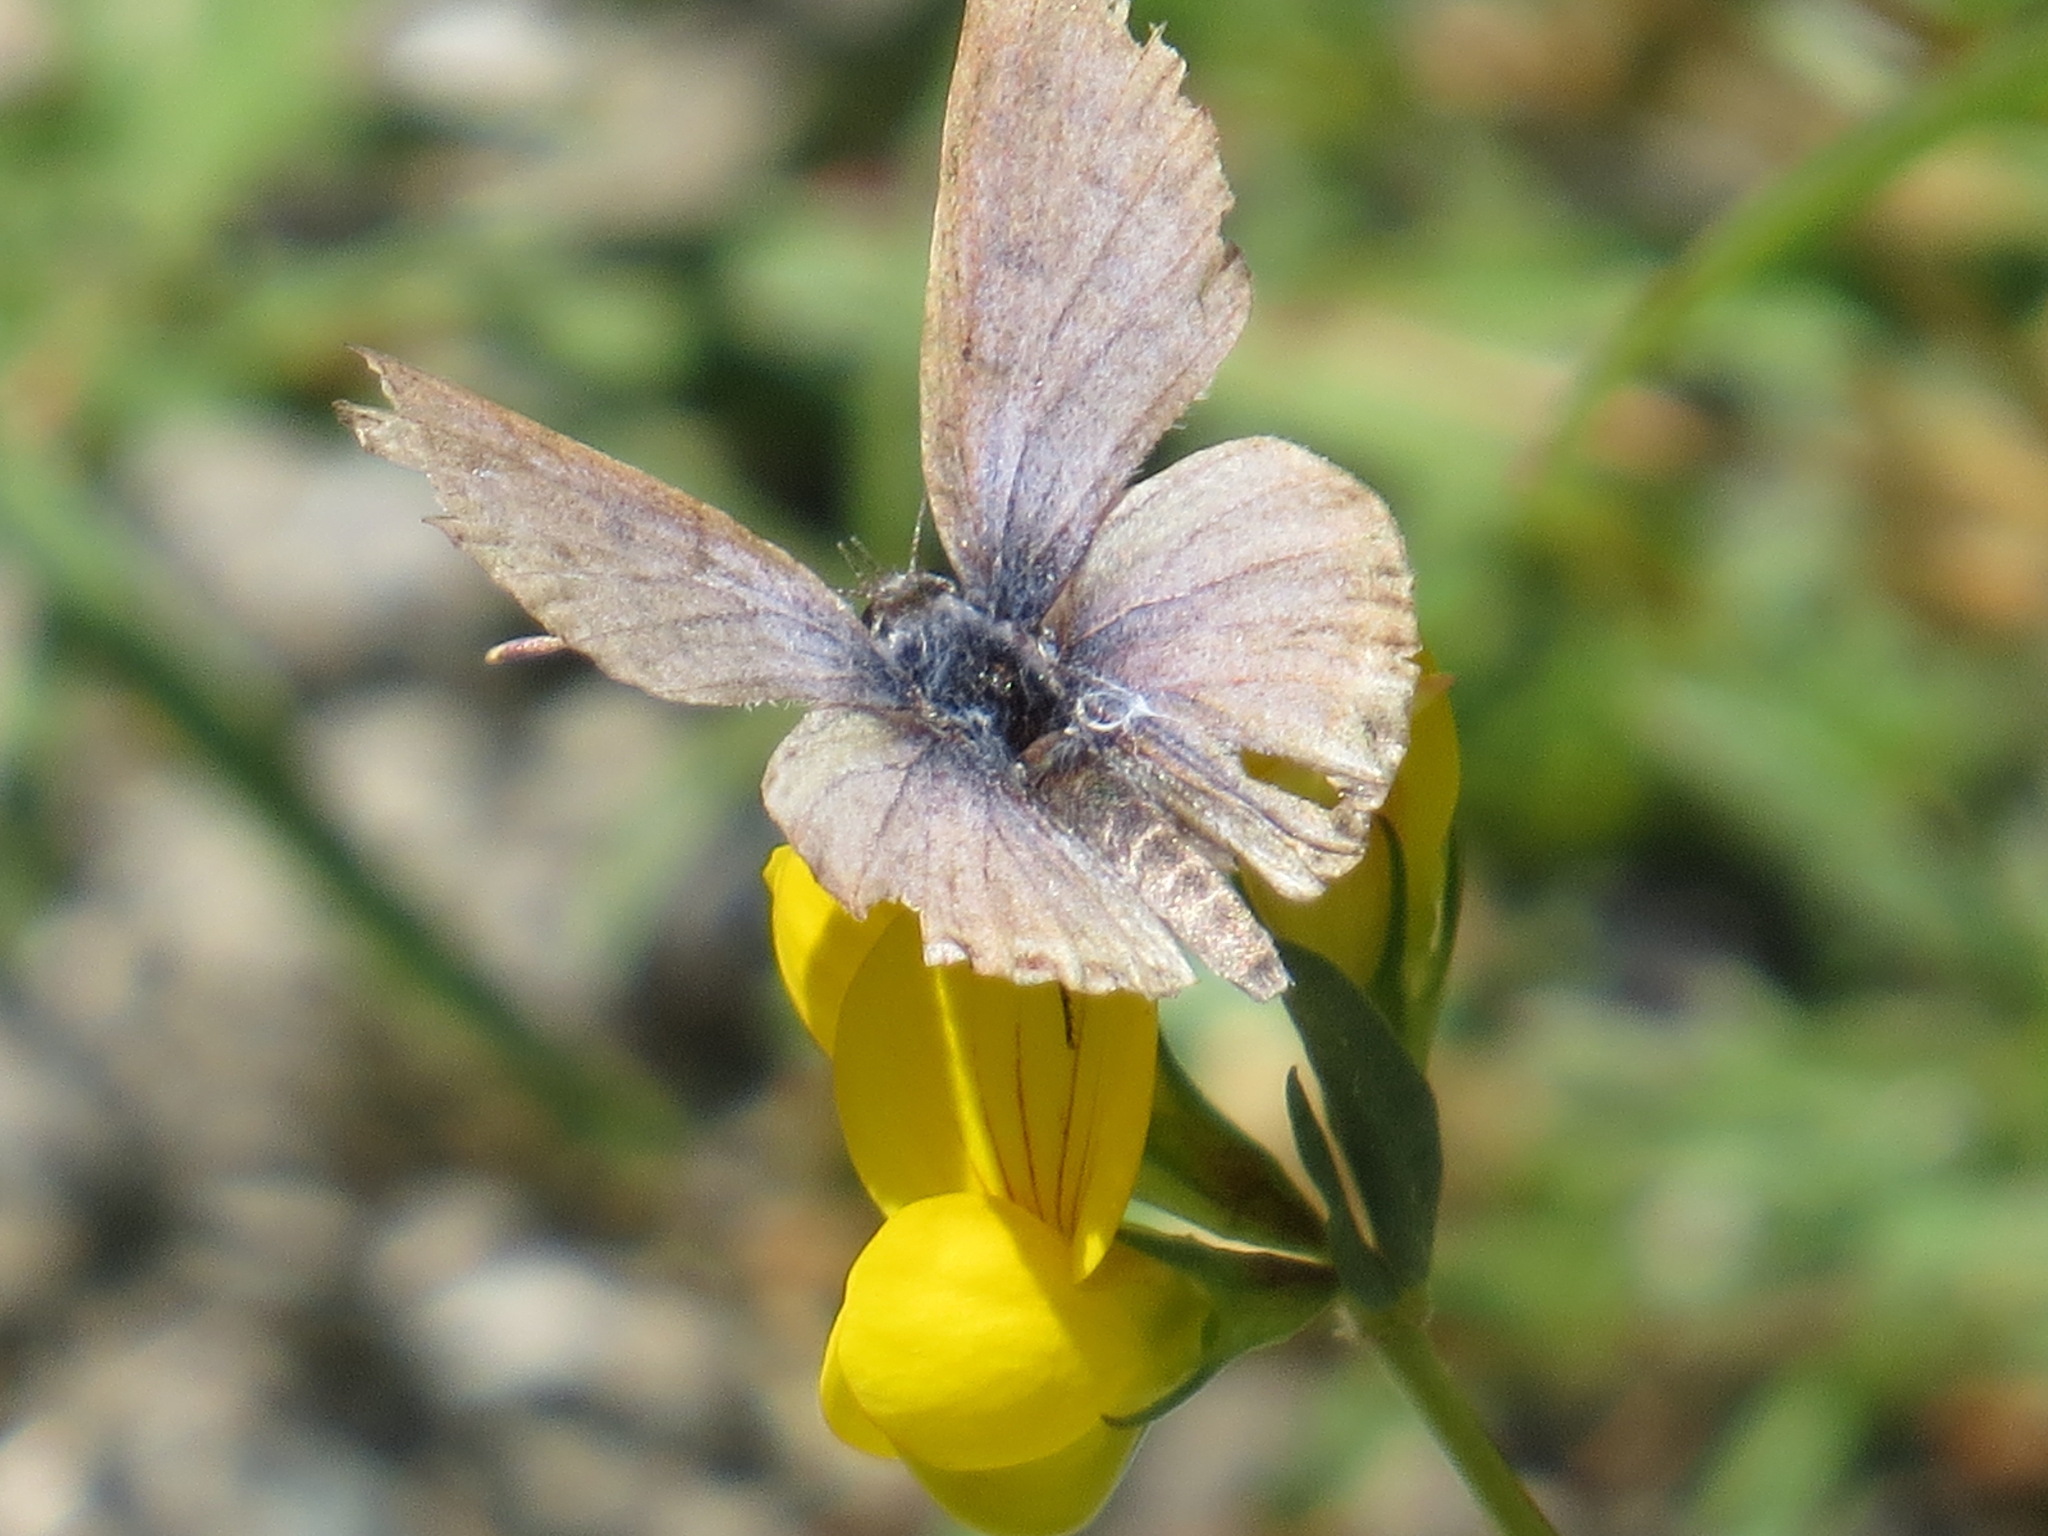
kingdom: Animalia
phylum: Arthropoda
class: Insecta
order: Lepidoptera
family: Lycaenidae
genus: Icaricia
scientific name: Icaricia acmon
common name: Acmon blue
